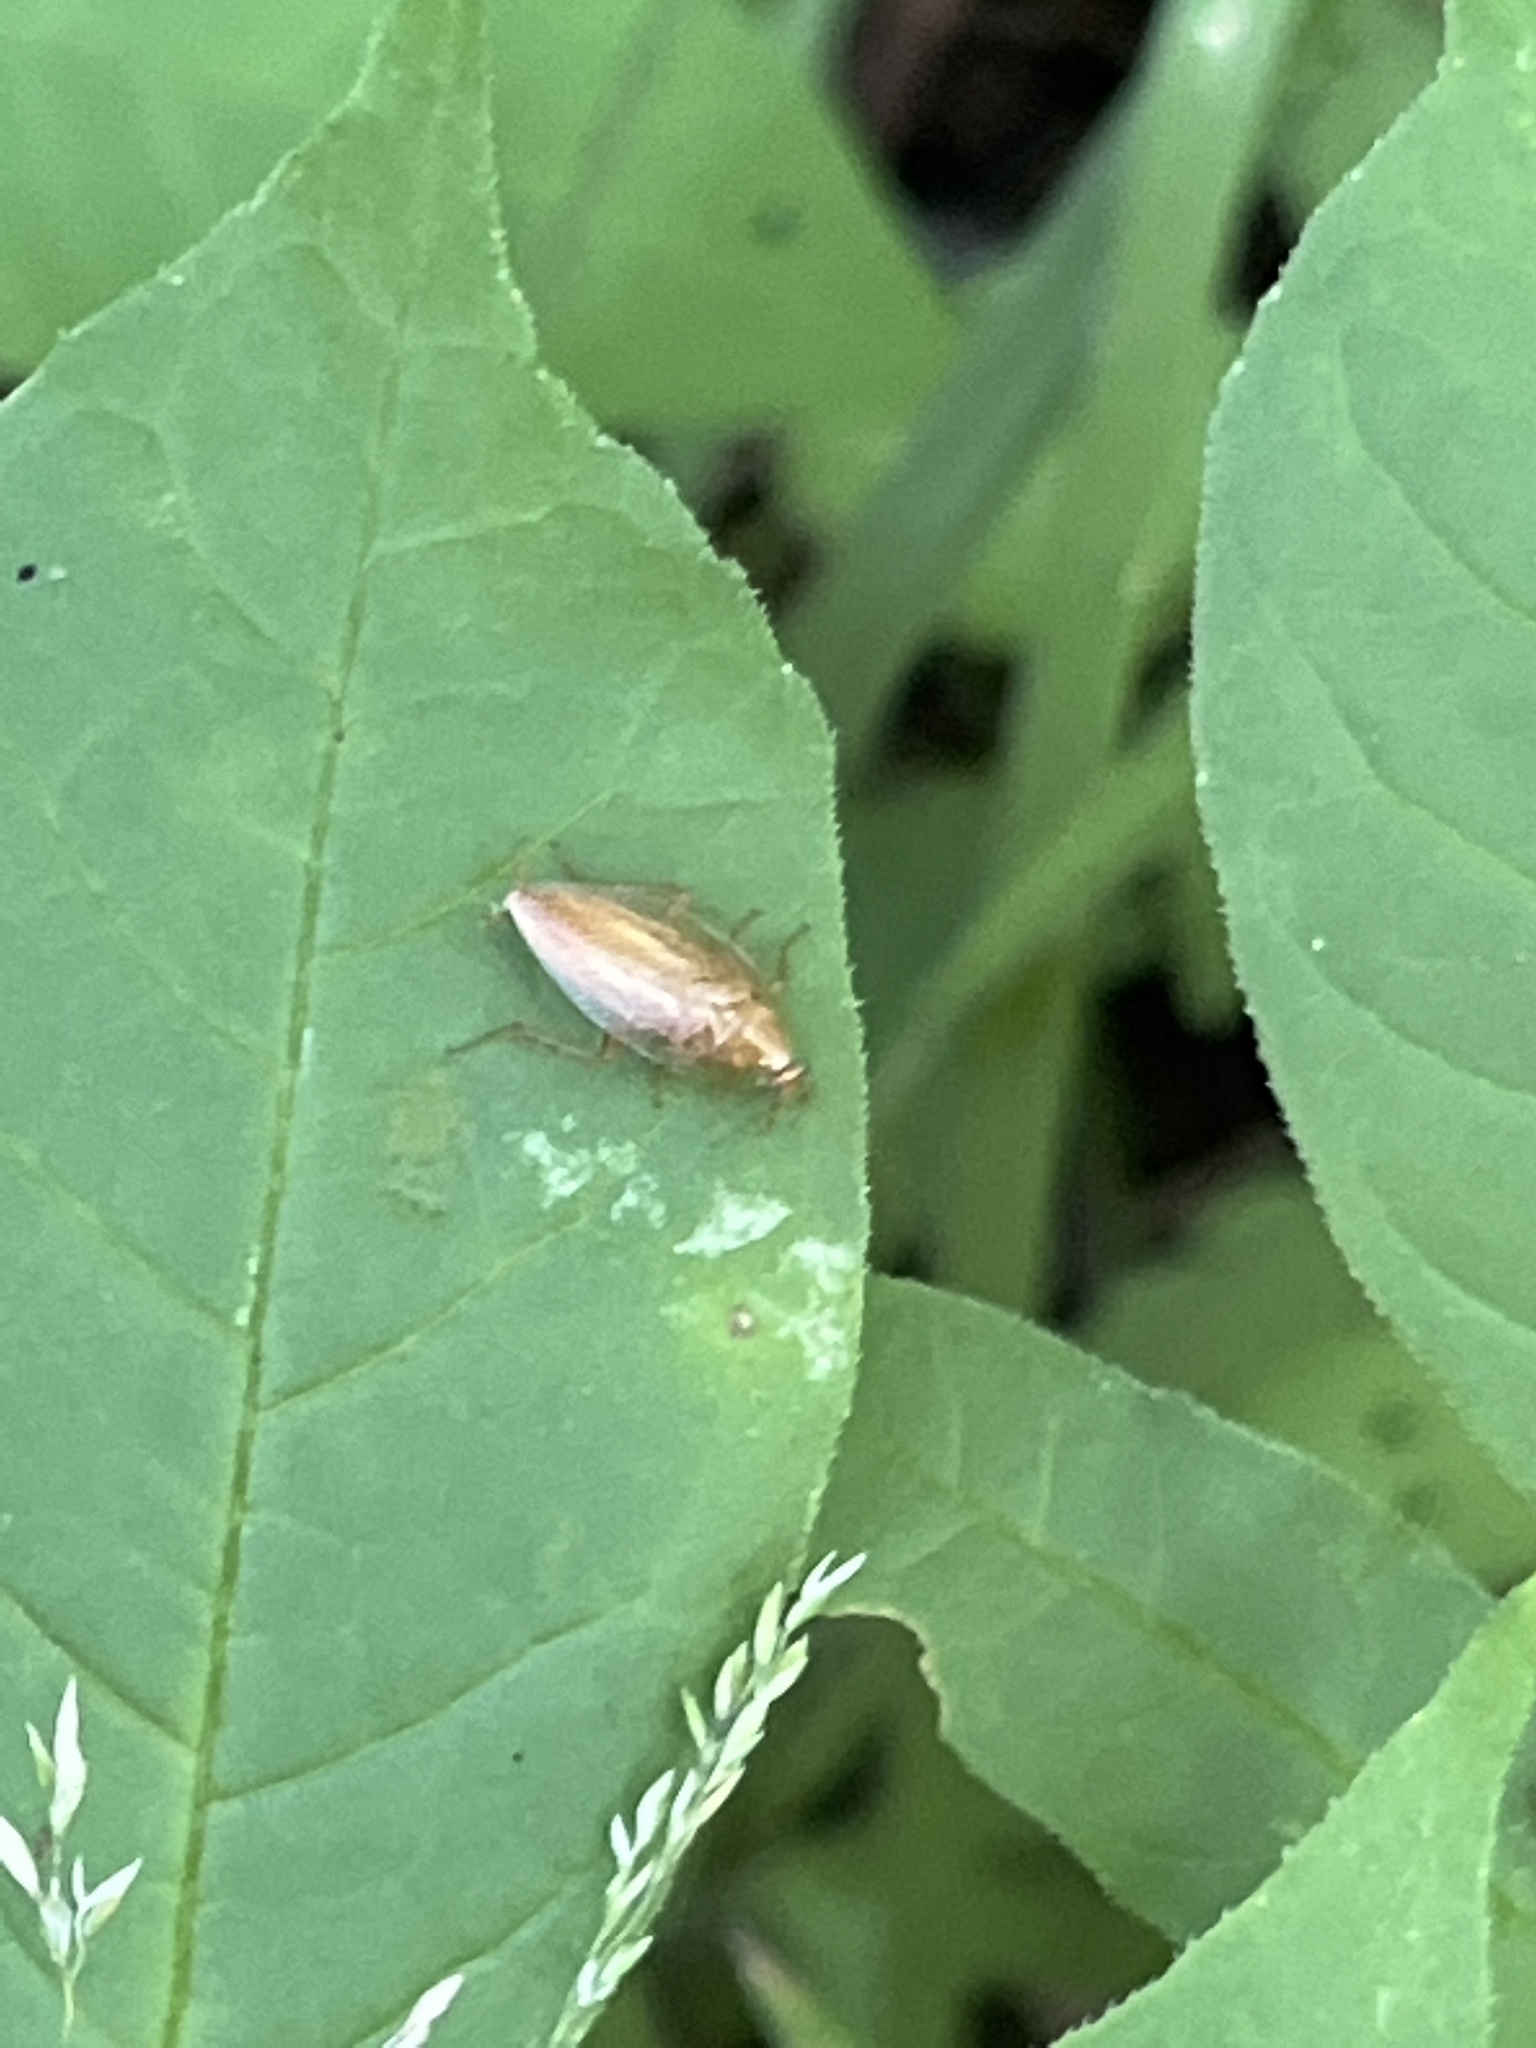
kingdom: Animalia
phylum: Arthropoda
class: Insecta
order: Blattodea
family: Ectobiidae
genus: Ectobius
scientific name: Ectobius pallidus
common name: Tawny cockroach
